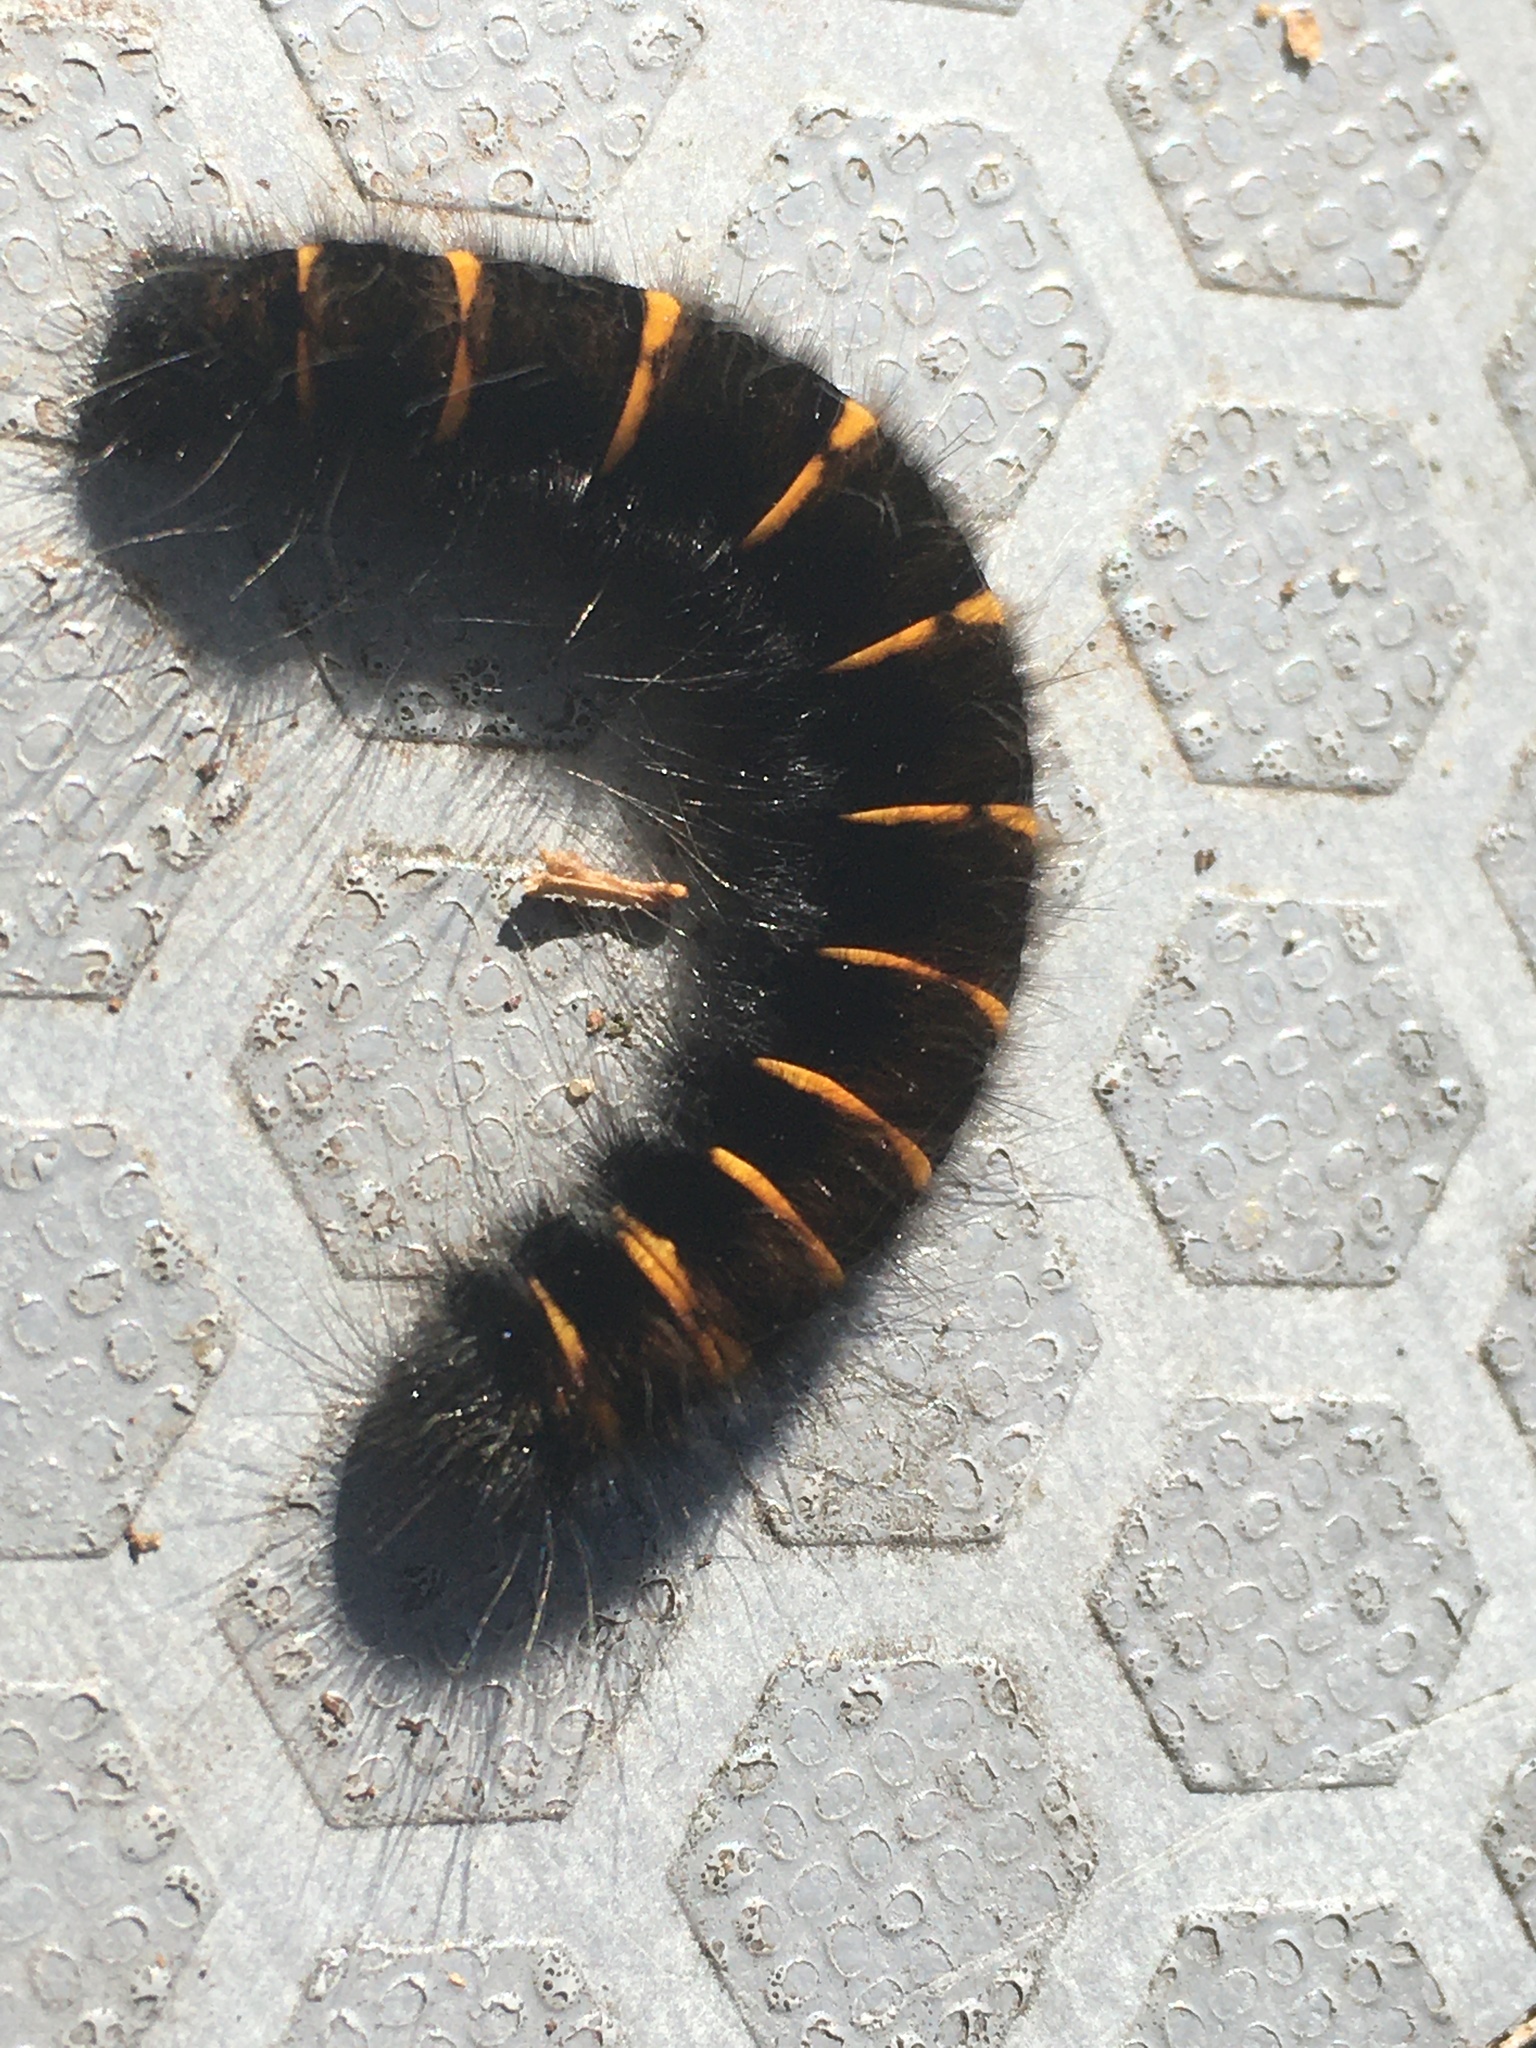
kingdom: Animalia
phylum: Arthropoda
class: Insecta
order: Lepidoptera
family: Lasiocampidae
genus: Macrothylacia
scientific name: Macrothylacia rubi
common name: Fox moth
